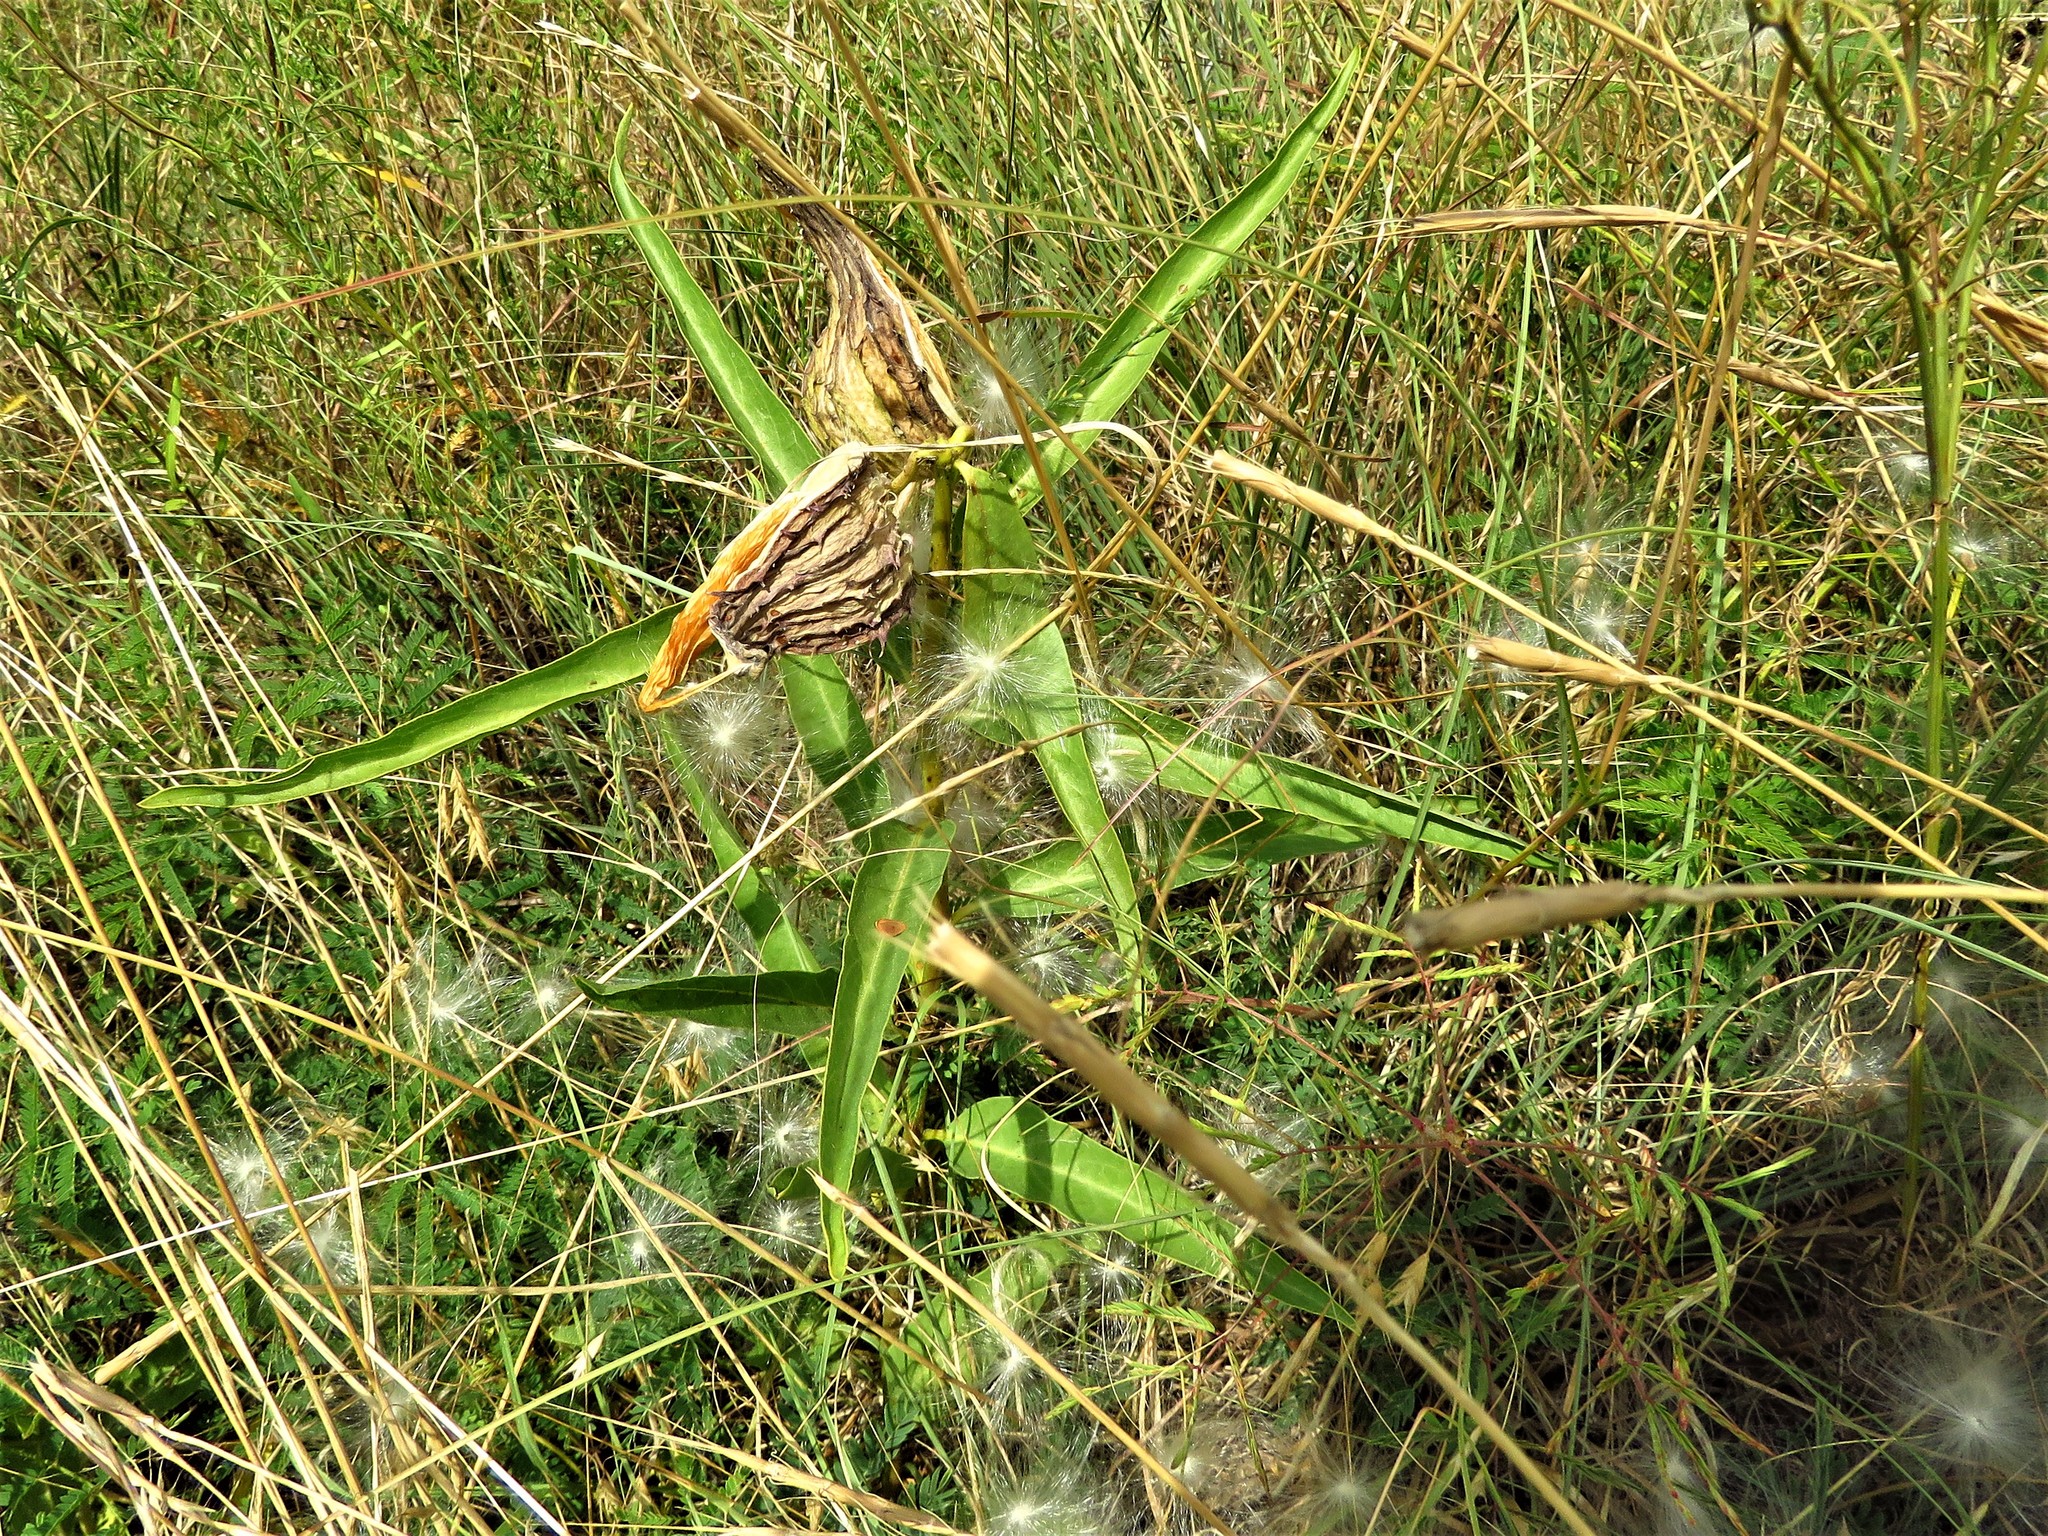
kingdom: Plantae
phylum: Tracheophyta
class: Magnoliopsida
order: Gentianales
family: Apocynaceae
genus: Asclepias
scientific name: Asclepias asperula
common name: Antelope horns
